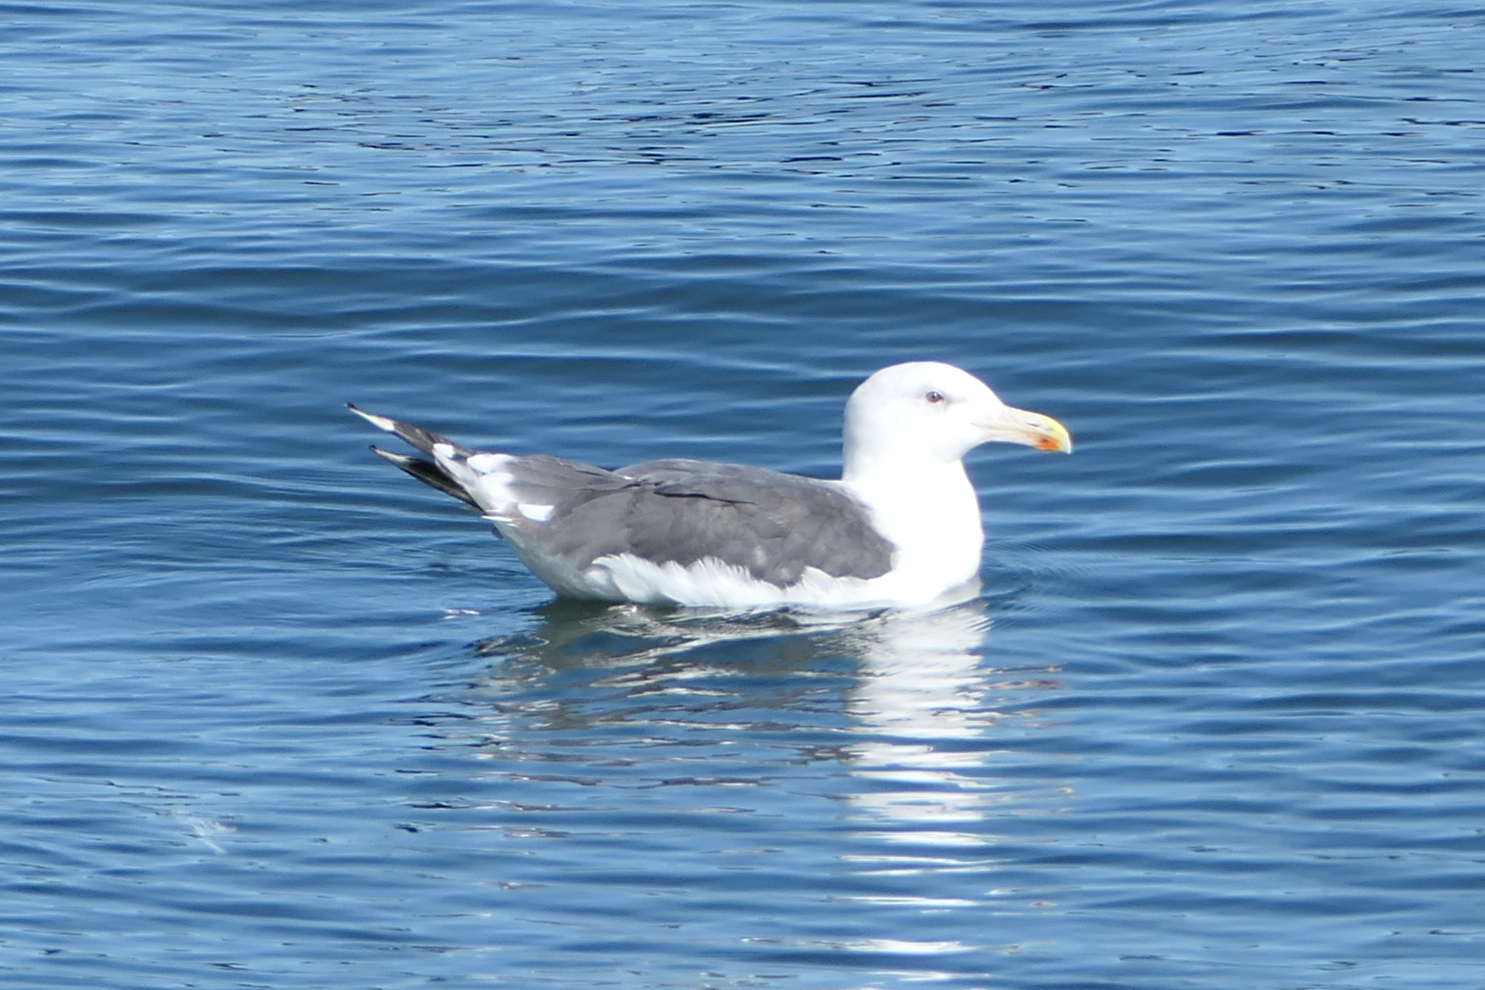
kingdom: Animalia
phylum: Chordata
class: Aves
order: Charadriiformes
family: Laridae
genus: Larus
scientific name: Larus marinus
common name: Great black-backed gull
